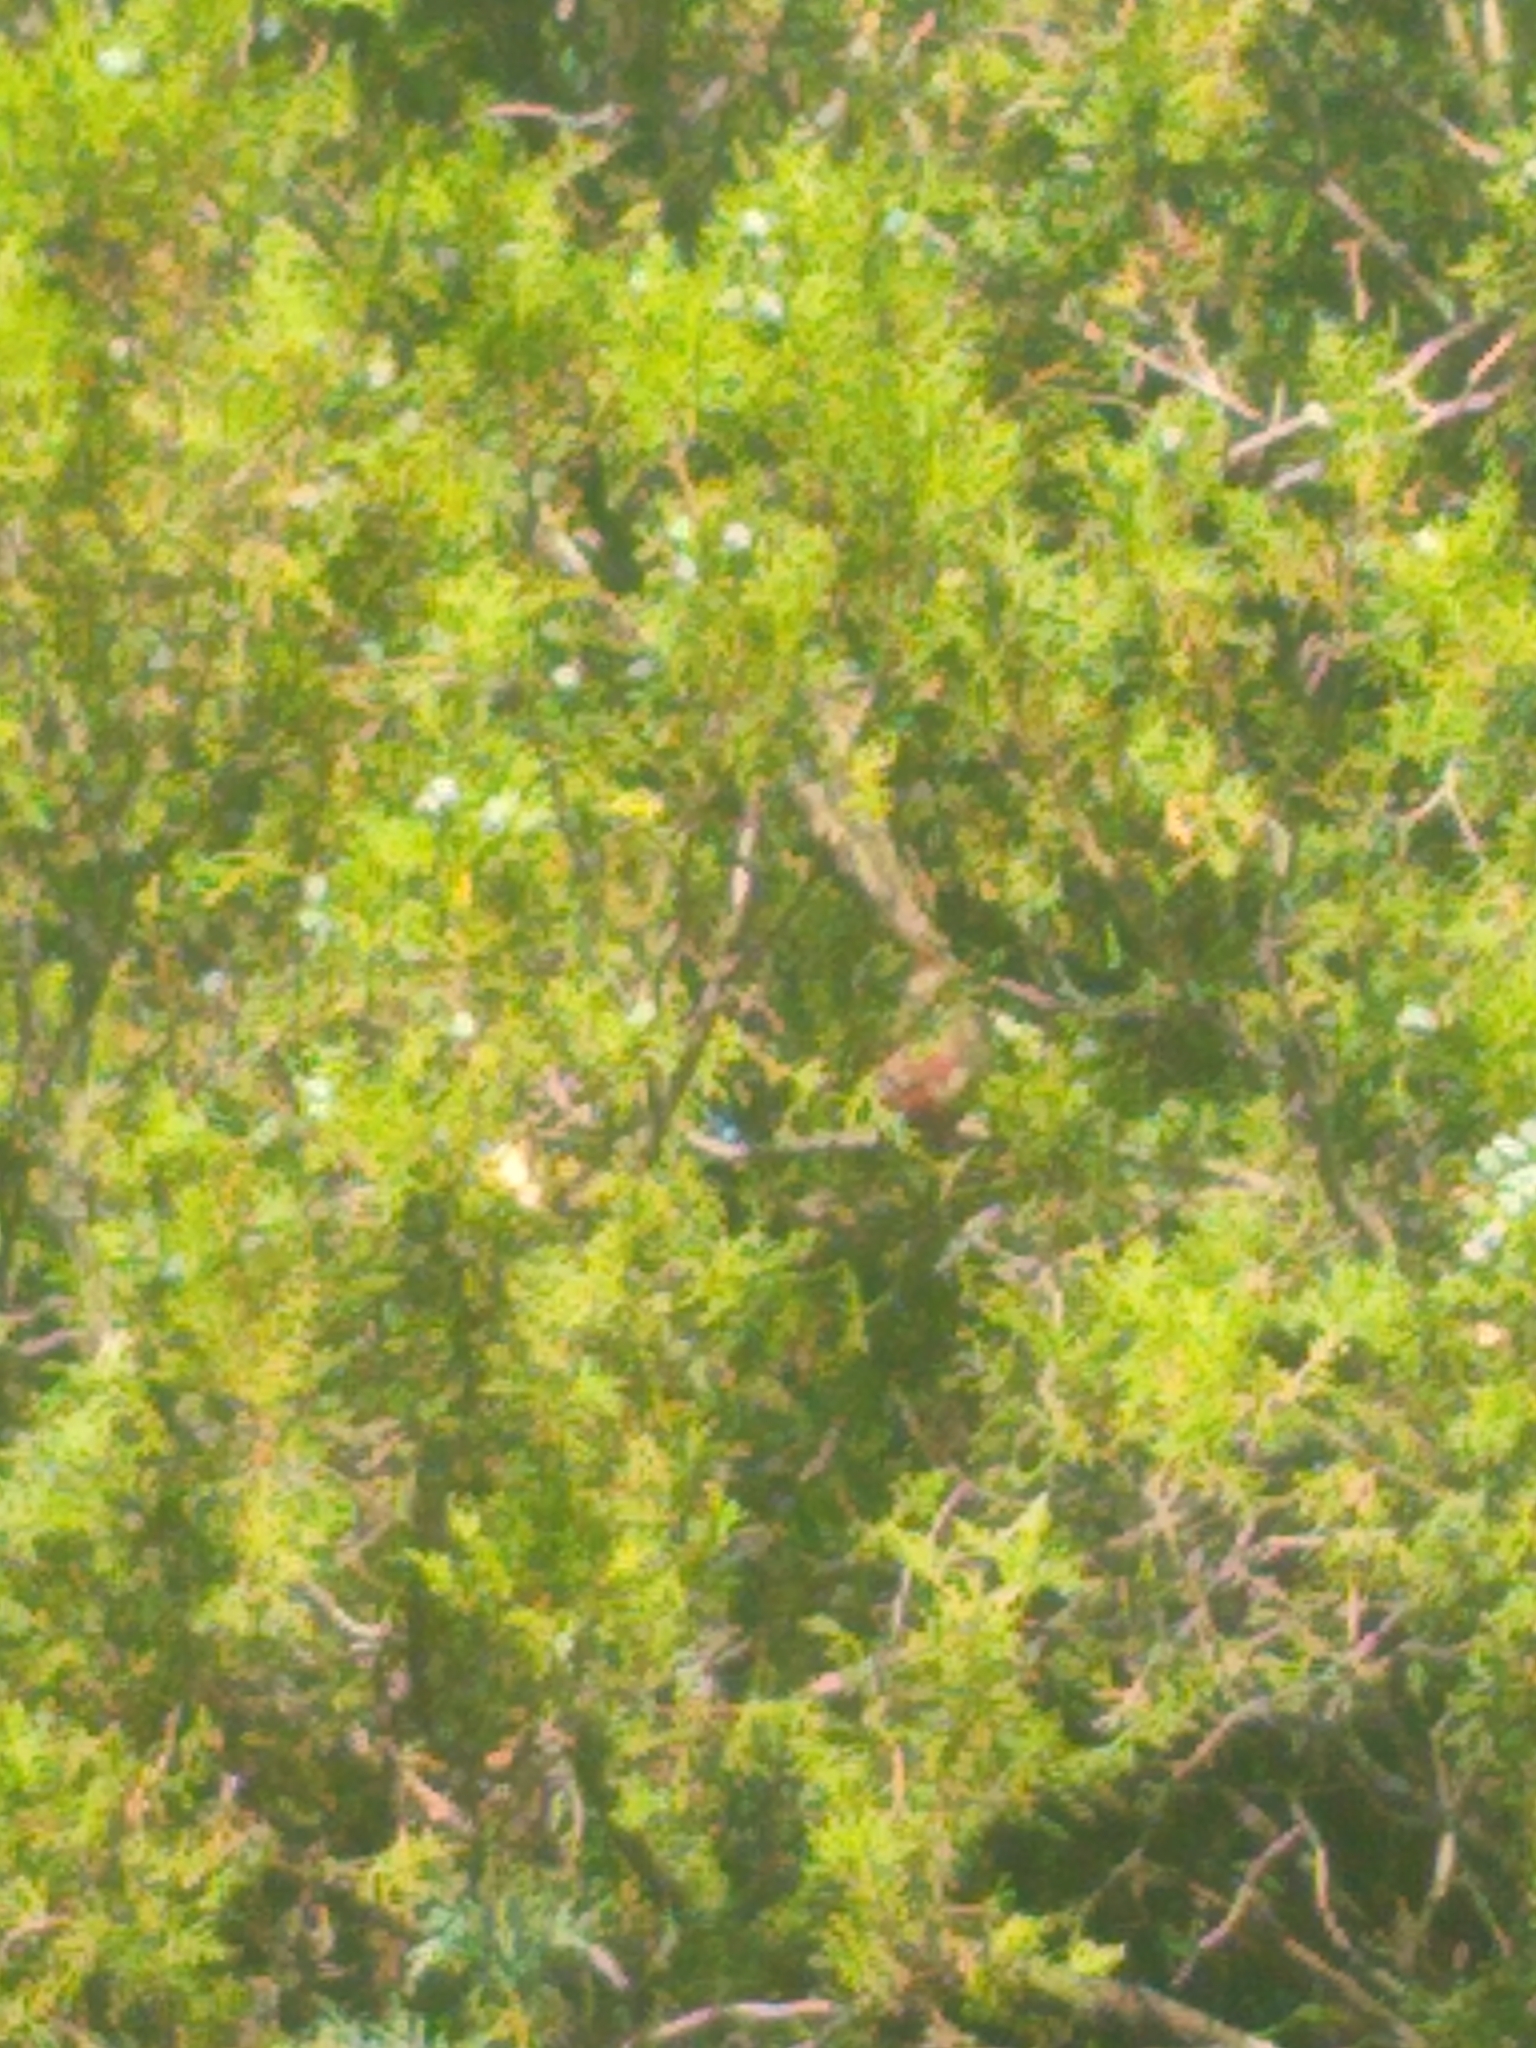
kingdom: Animalia
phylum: Chordata
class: Aves
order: Passeriformes
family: Cardinalidae
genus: Cardinalis
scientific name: Cardinalis cardinalis
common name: Northern cardinal
